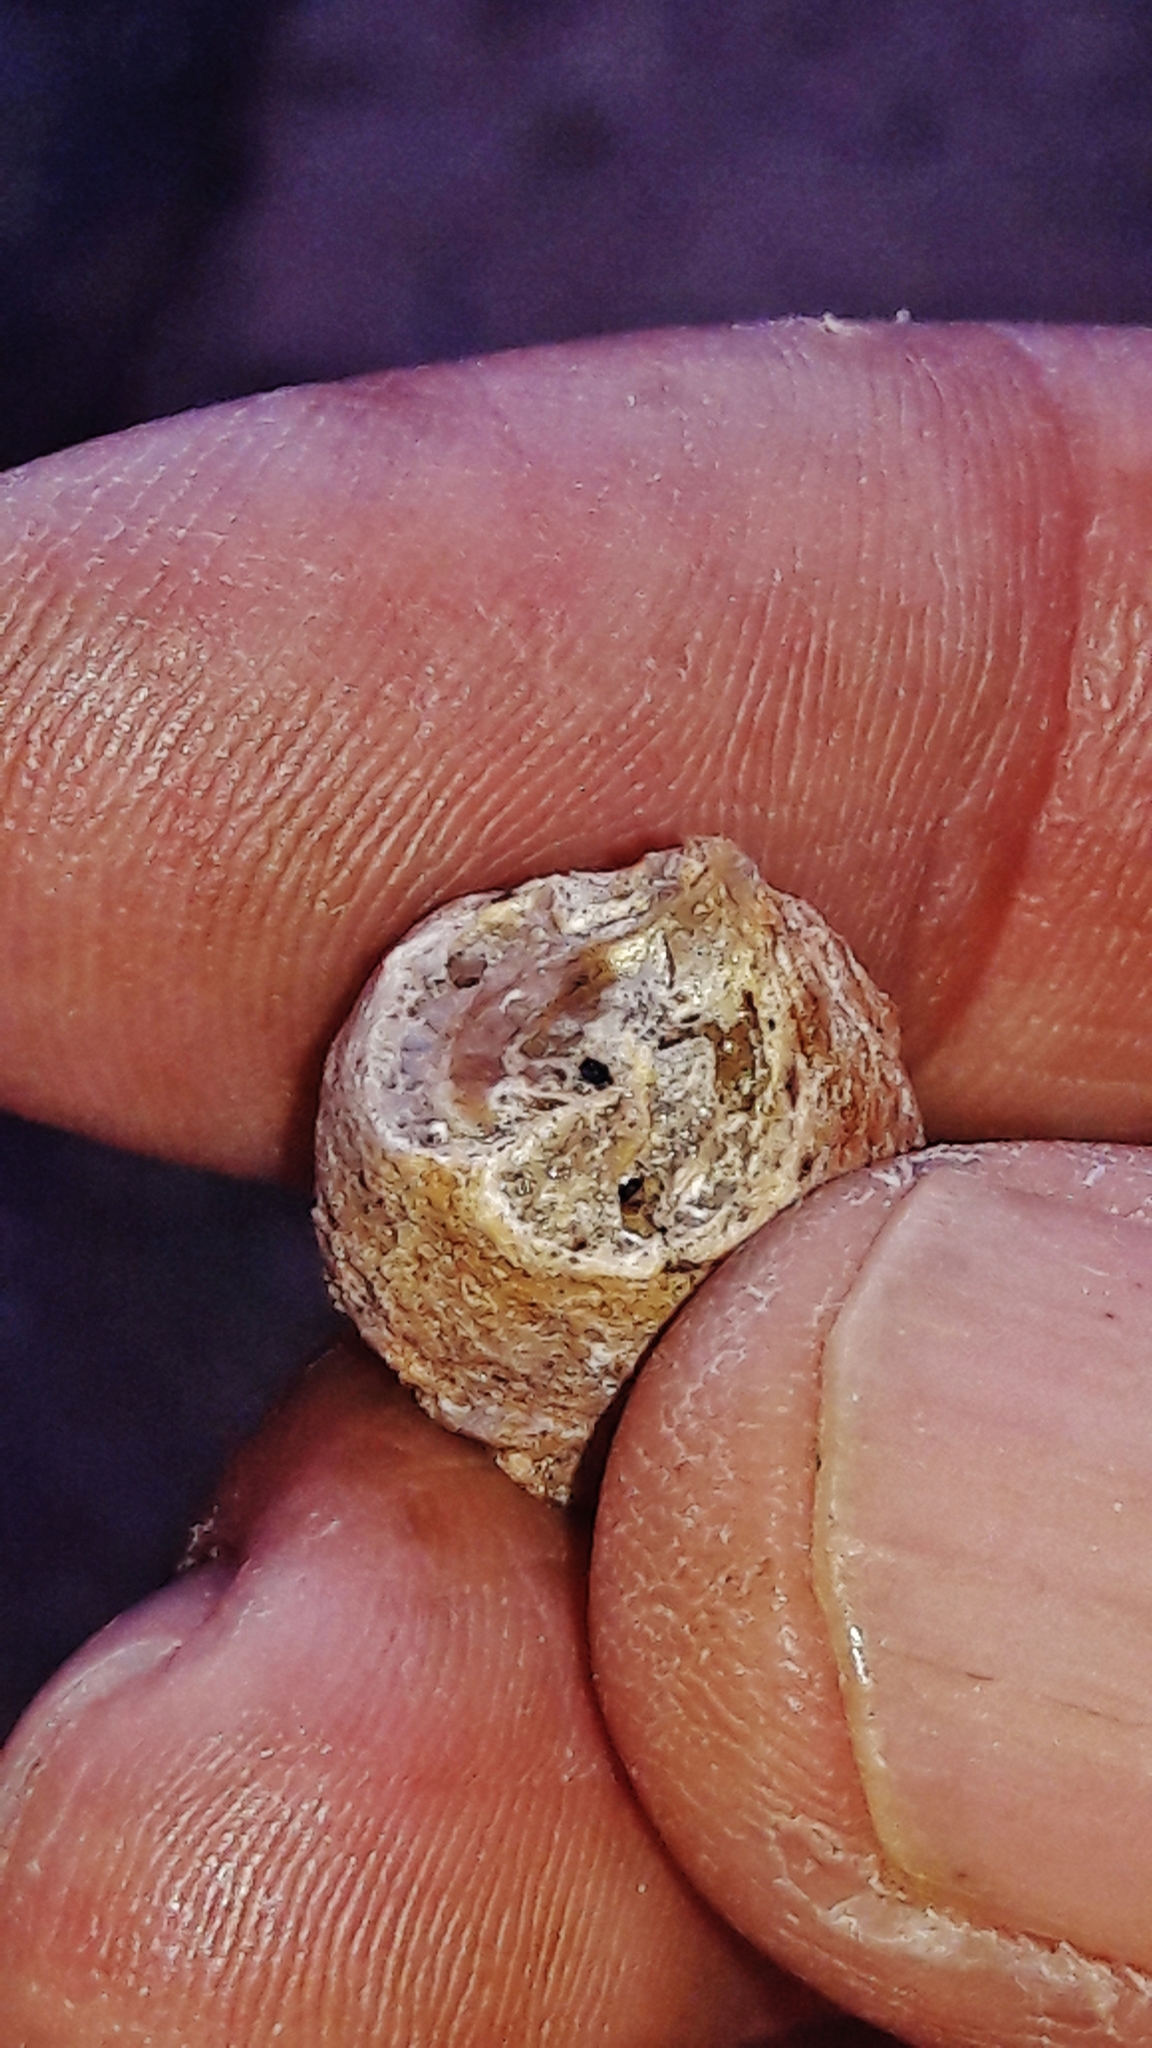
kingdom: Animalia
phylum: Arthropoda
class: Insecta
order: Mantodea
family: Mantidae
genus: Stagmatoptera
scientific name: Stagmatoptera
